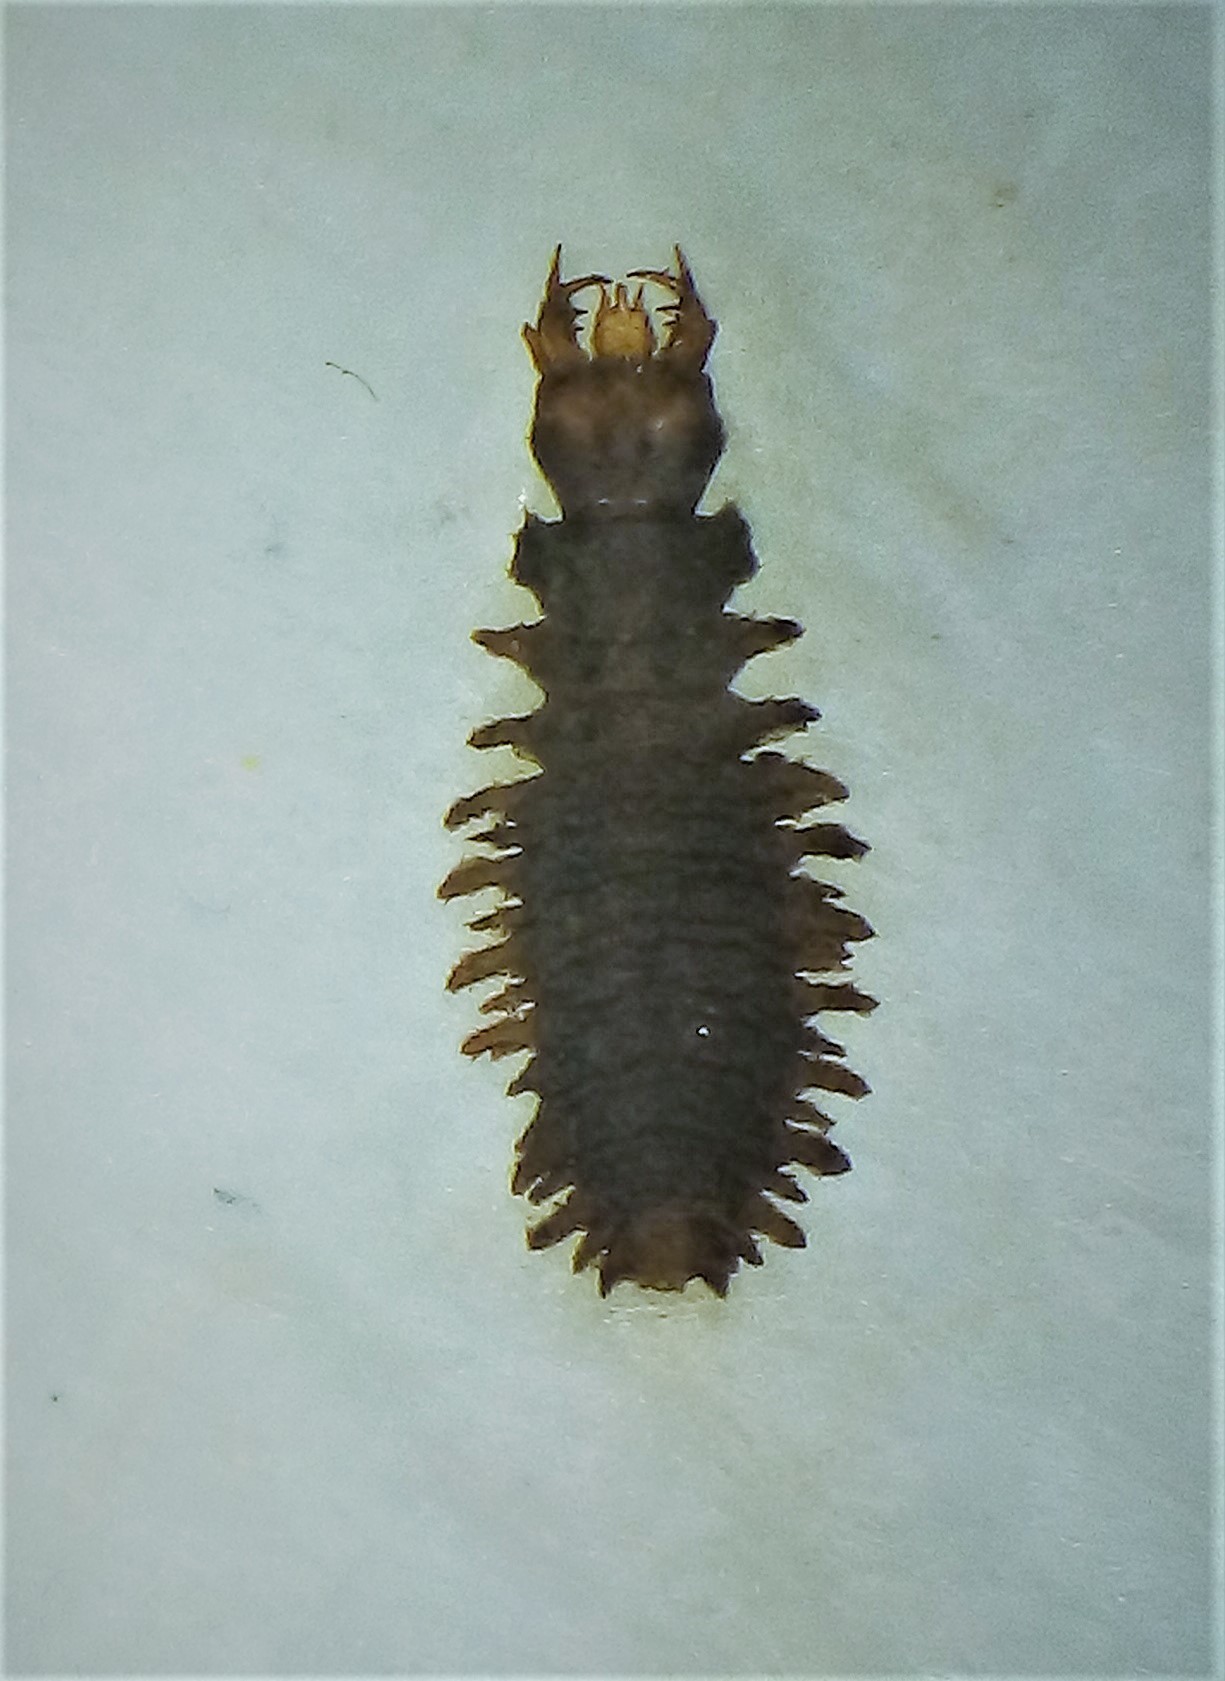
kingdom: Animalia
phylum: Arthropoda
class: Insecta
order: Coleoptera
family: Hydrophilidae
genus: Enigmahydrus
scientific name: Enigmahydrus larvalis
